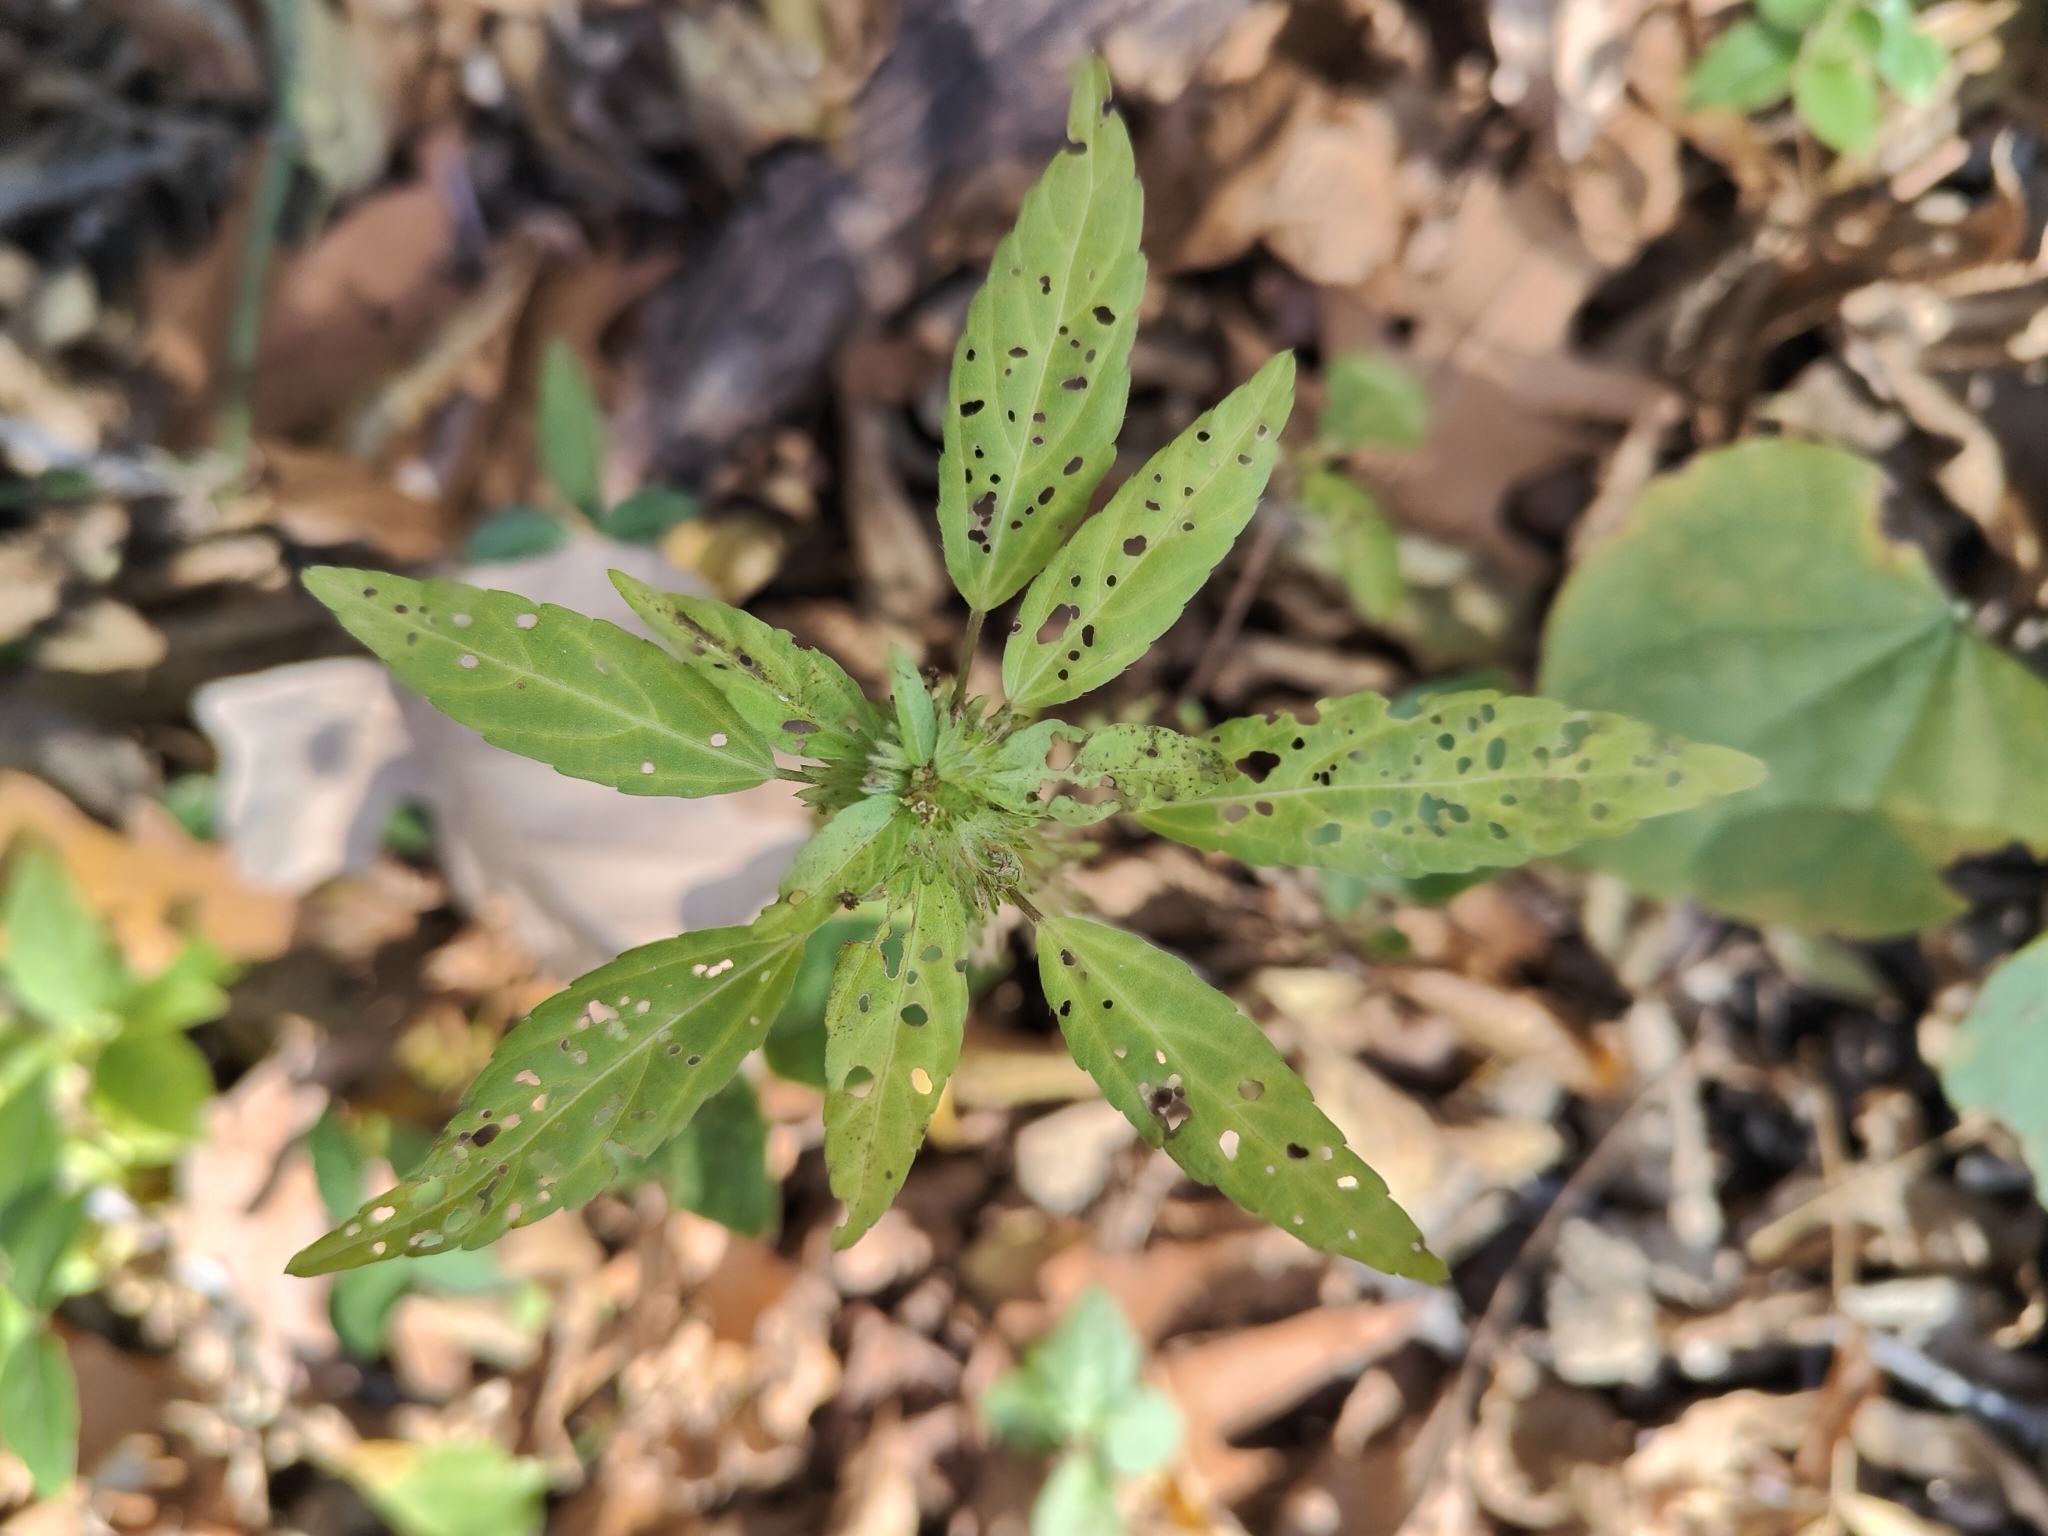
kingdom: Plantae
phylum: Tracheophyta
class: Magnoliopsida
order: Malpighiales
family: Euphorbiaceae
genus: Acalypha
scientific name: Acalypha virginica
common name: Virginia copperleaf
